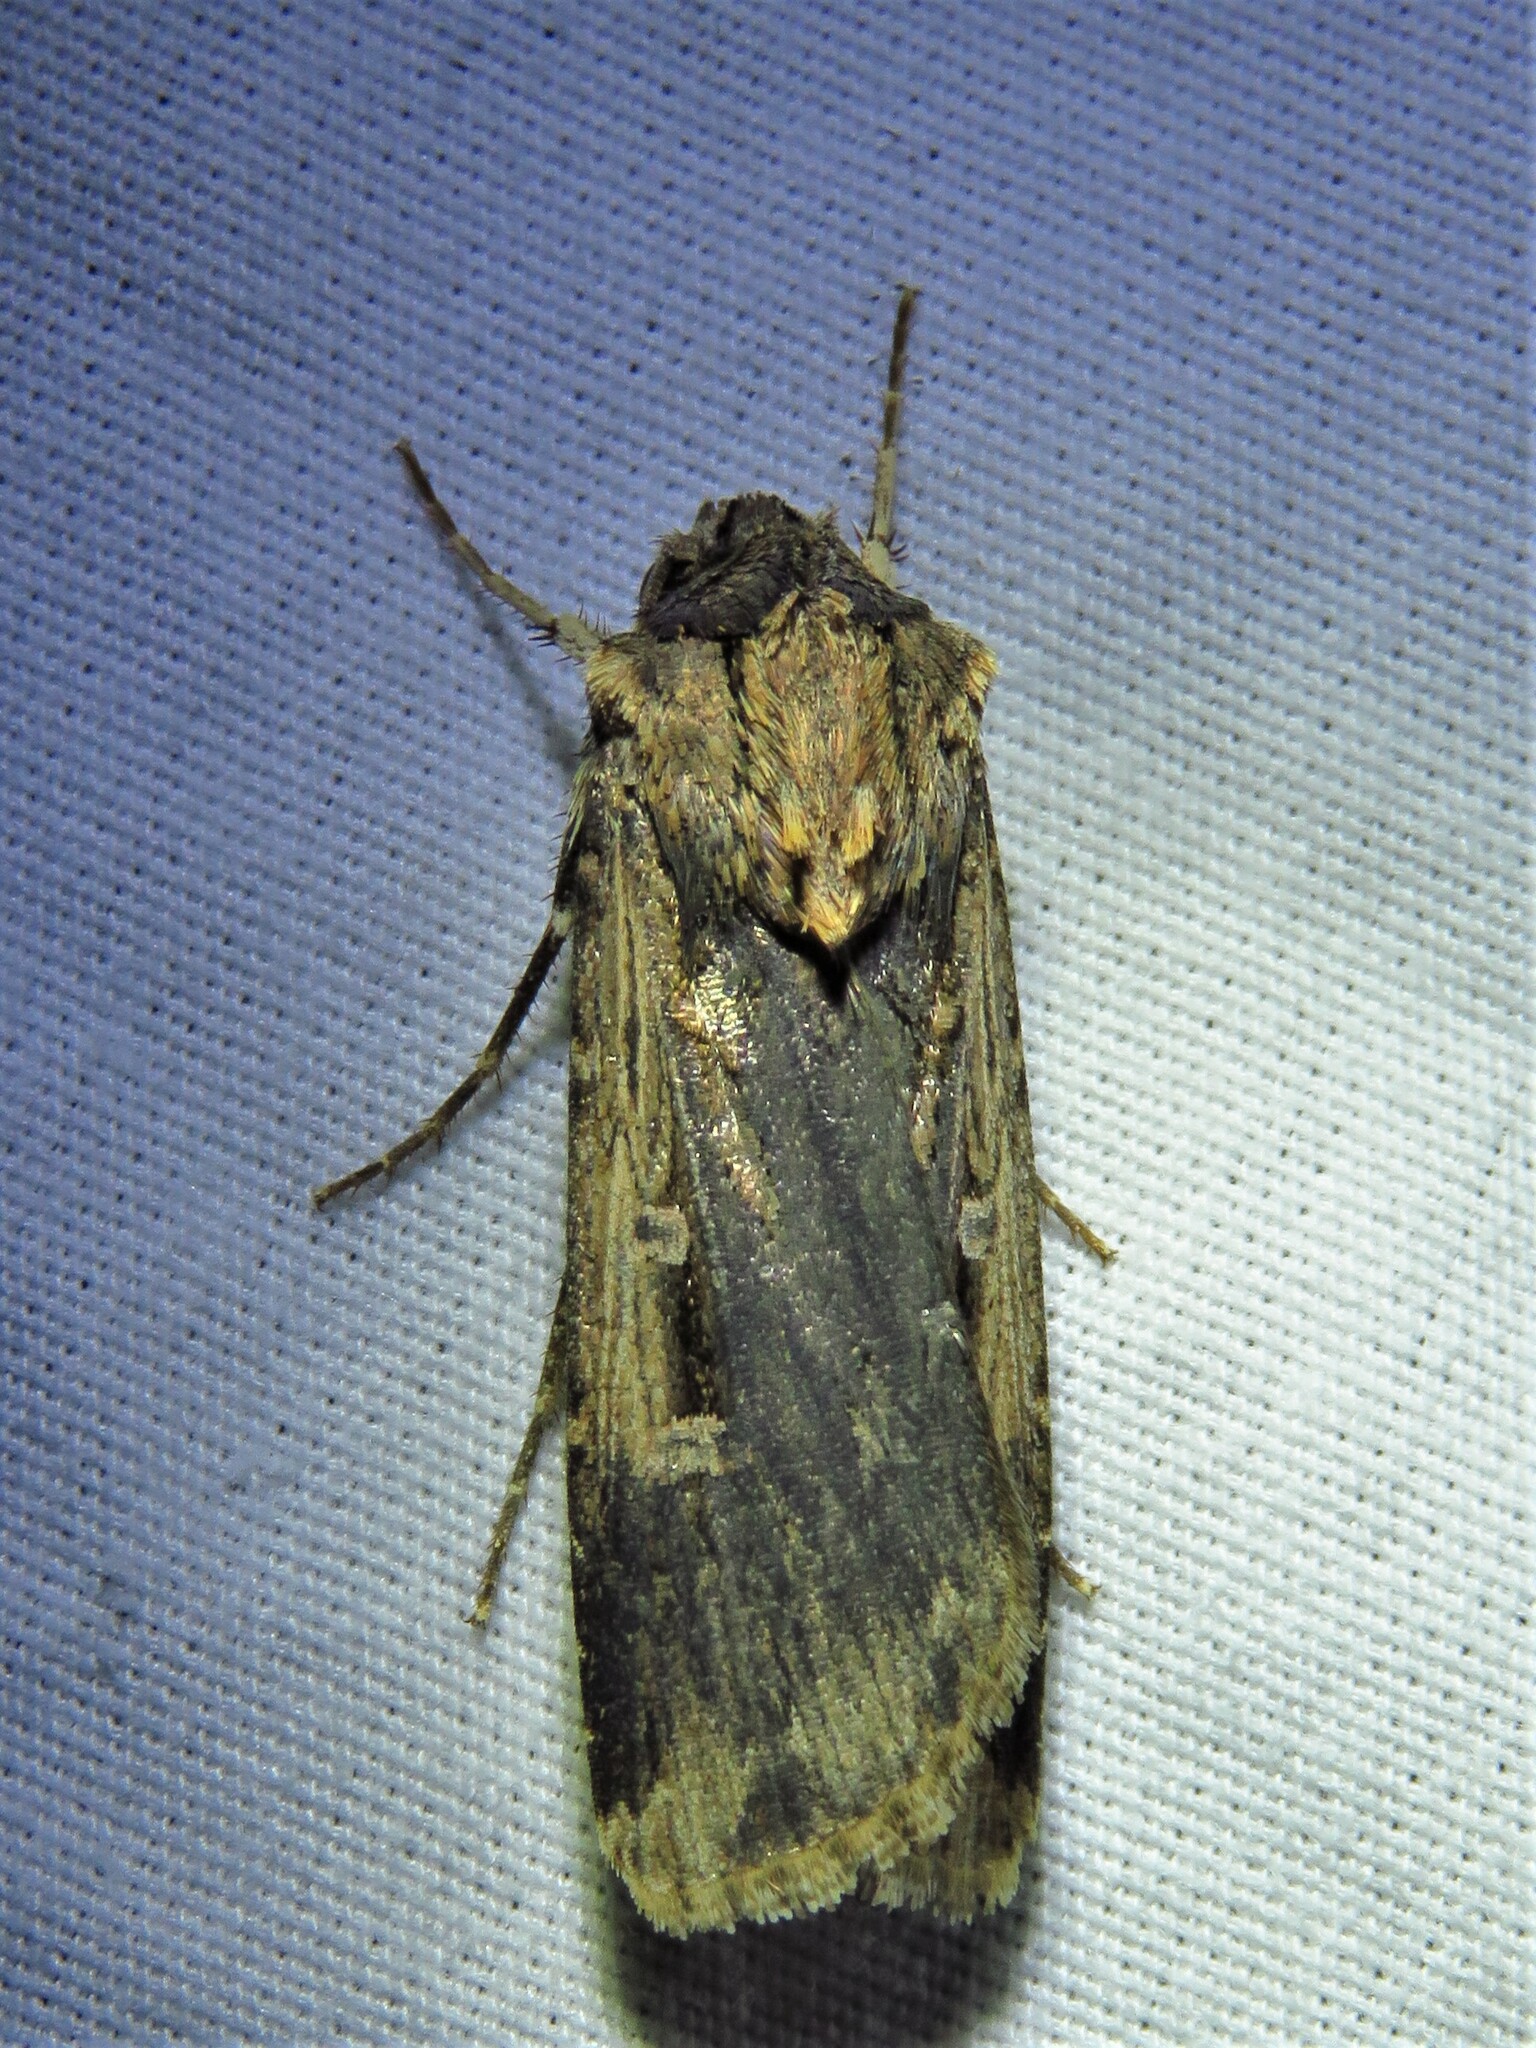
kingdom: Animalia
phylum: Arthropoda
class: Insecta
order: Lepidoptera
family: Noctuidae
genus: Feltia
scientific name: Feltia subterranea
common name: Granulate cutworm
